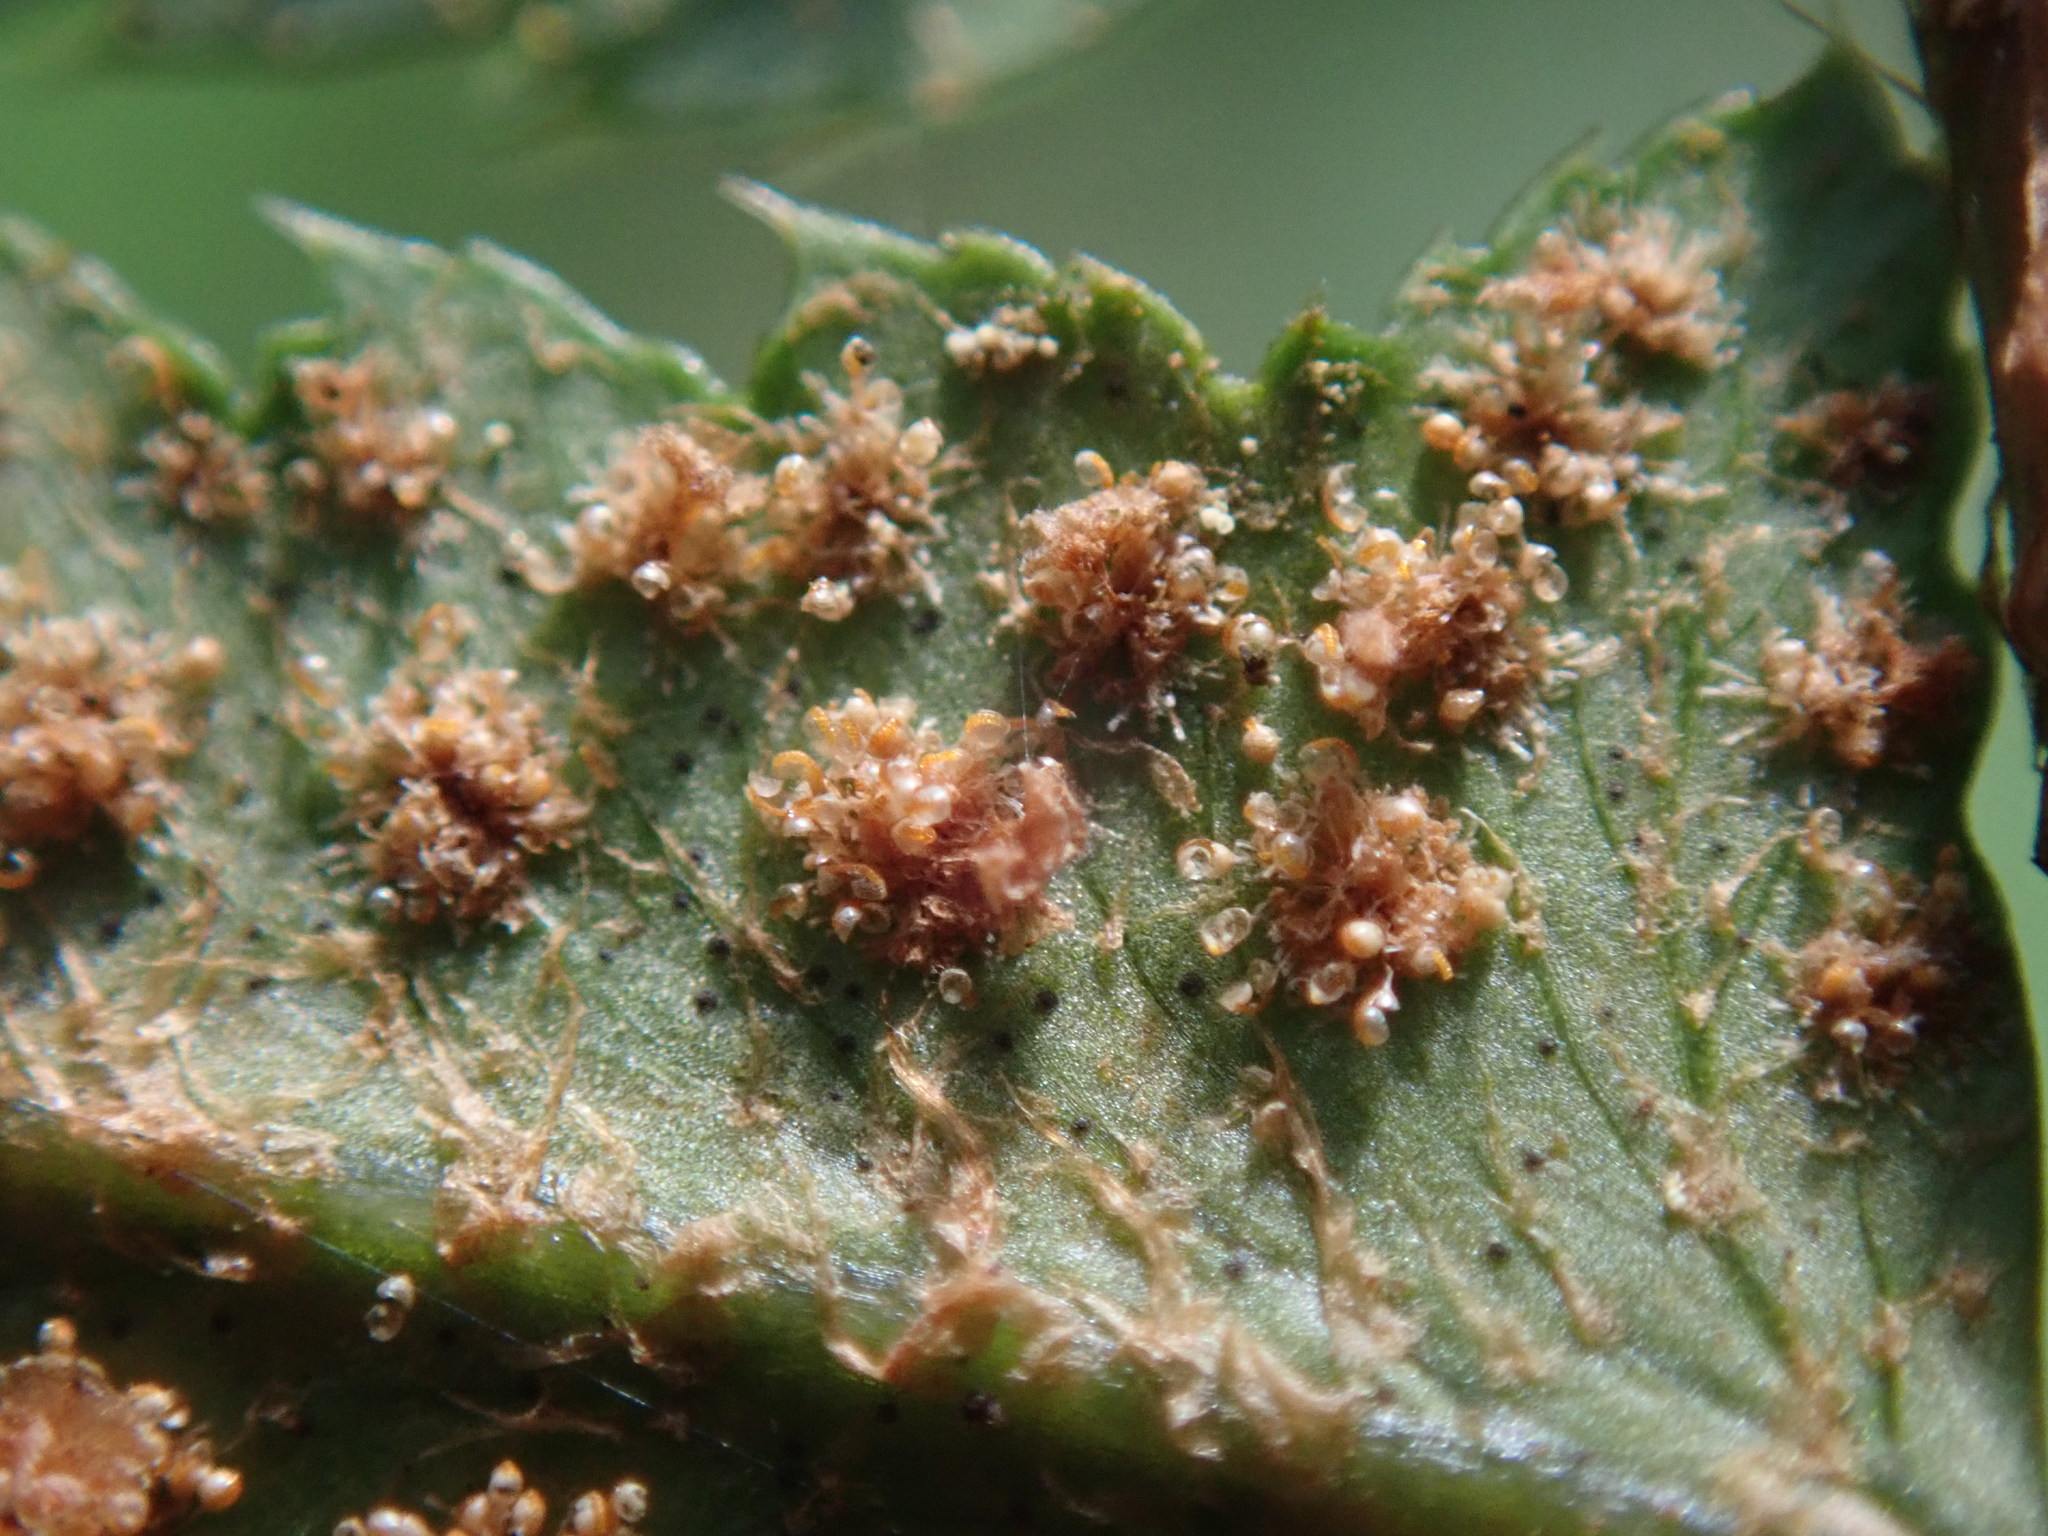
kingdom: Plantae
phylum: Tracheophyta
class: Polypodiopsida
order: Polypodiales
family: Dryopteridaceae
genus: Polystichum
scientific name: Polystichum munitum
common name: Western sword-fern
